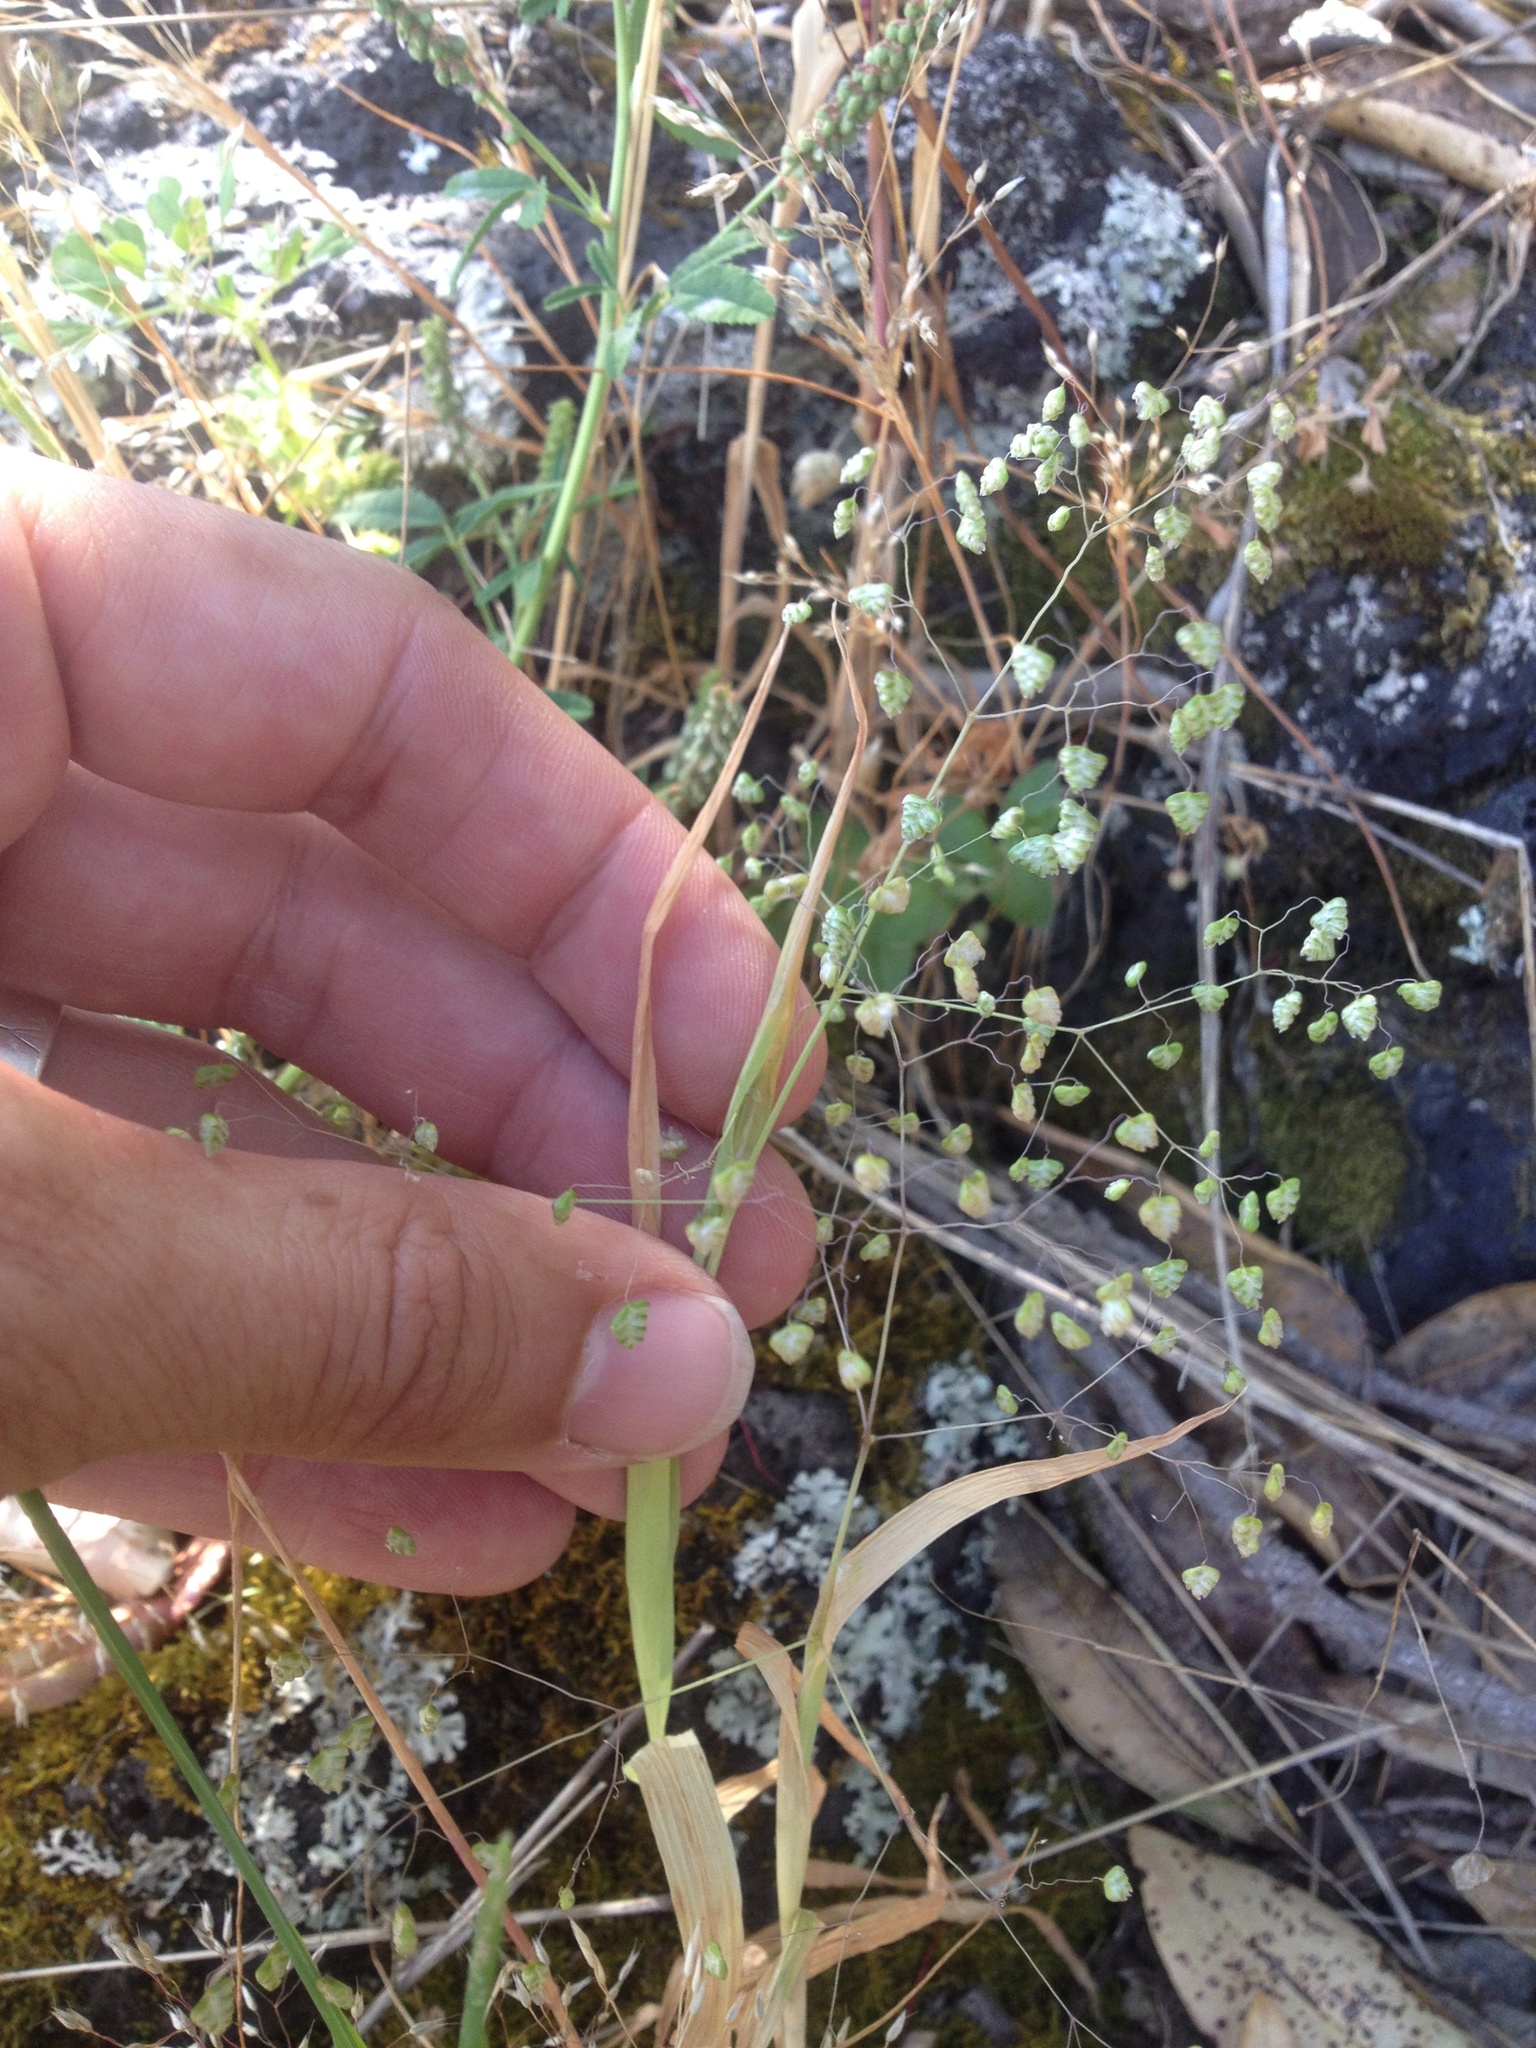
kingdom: Plantae
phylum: Tracheophyta
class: Liliopsida
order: Poales
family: Poaceae
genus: Briza
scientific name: Briza minor
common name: Lesser quaking-grass
